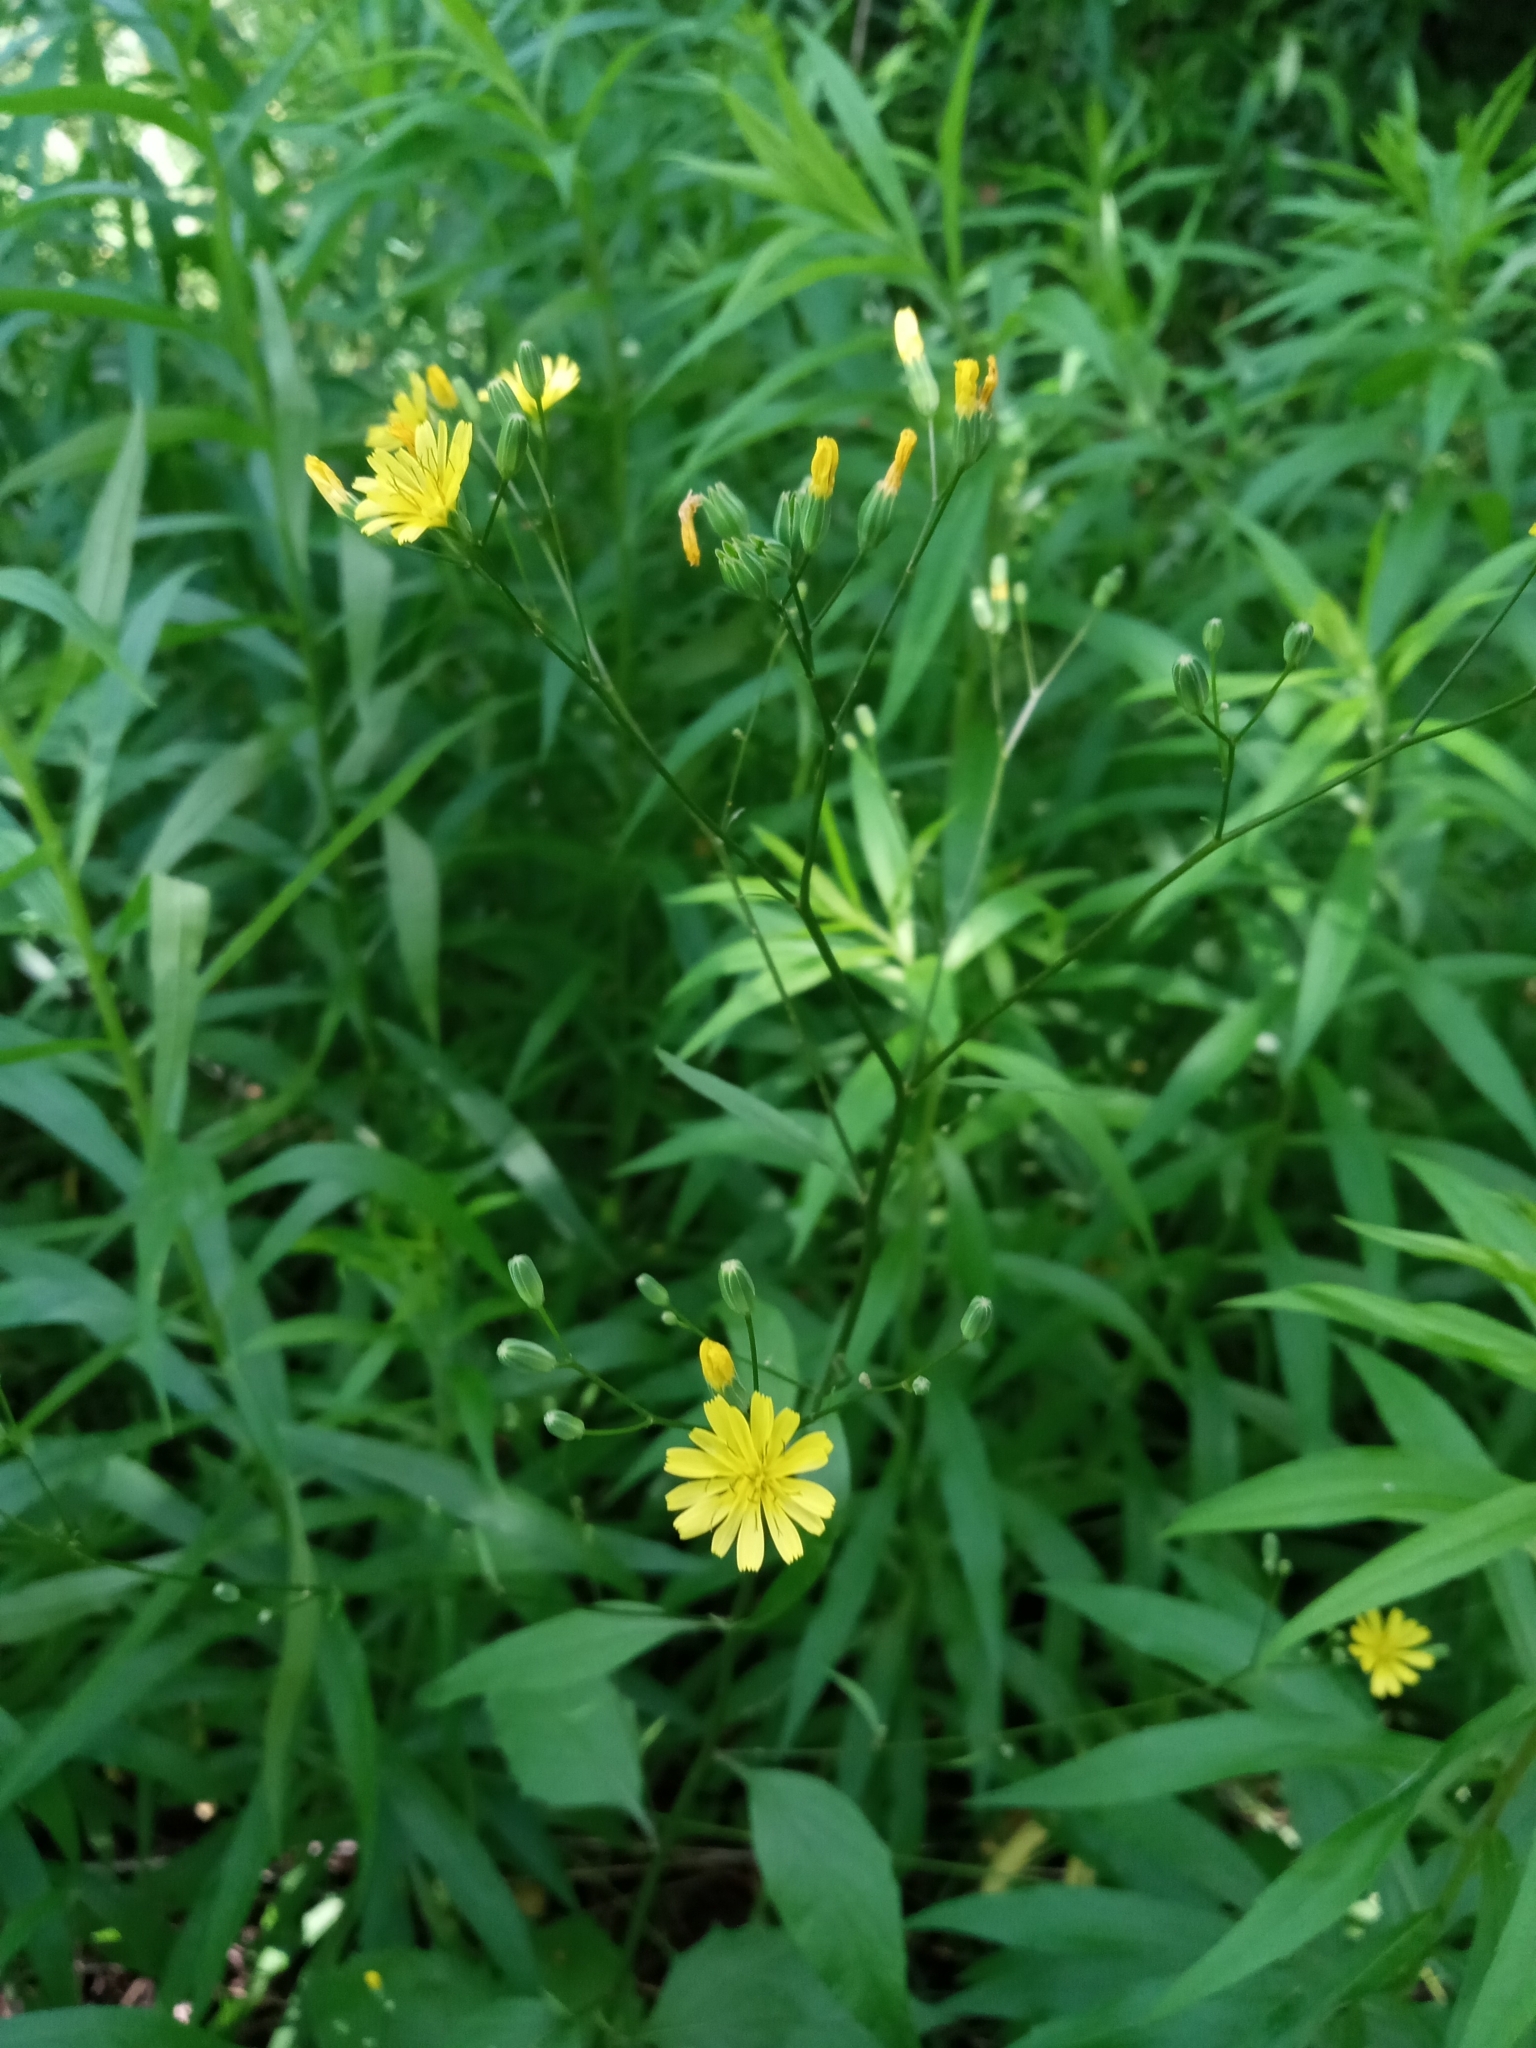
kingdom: Plantae
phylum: Tracheophyta
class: Magnoliopsida
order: Asterales
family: Asteraceae
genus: Lapsana
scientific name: Lapsana communis
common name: Nipplewort
